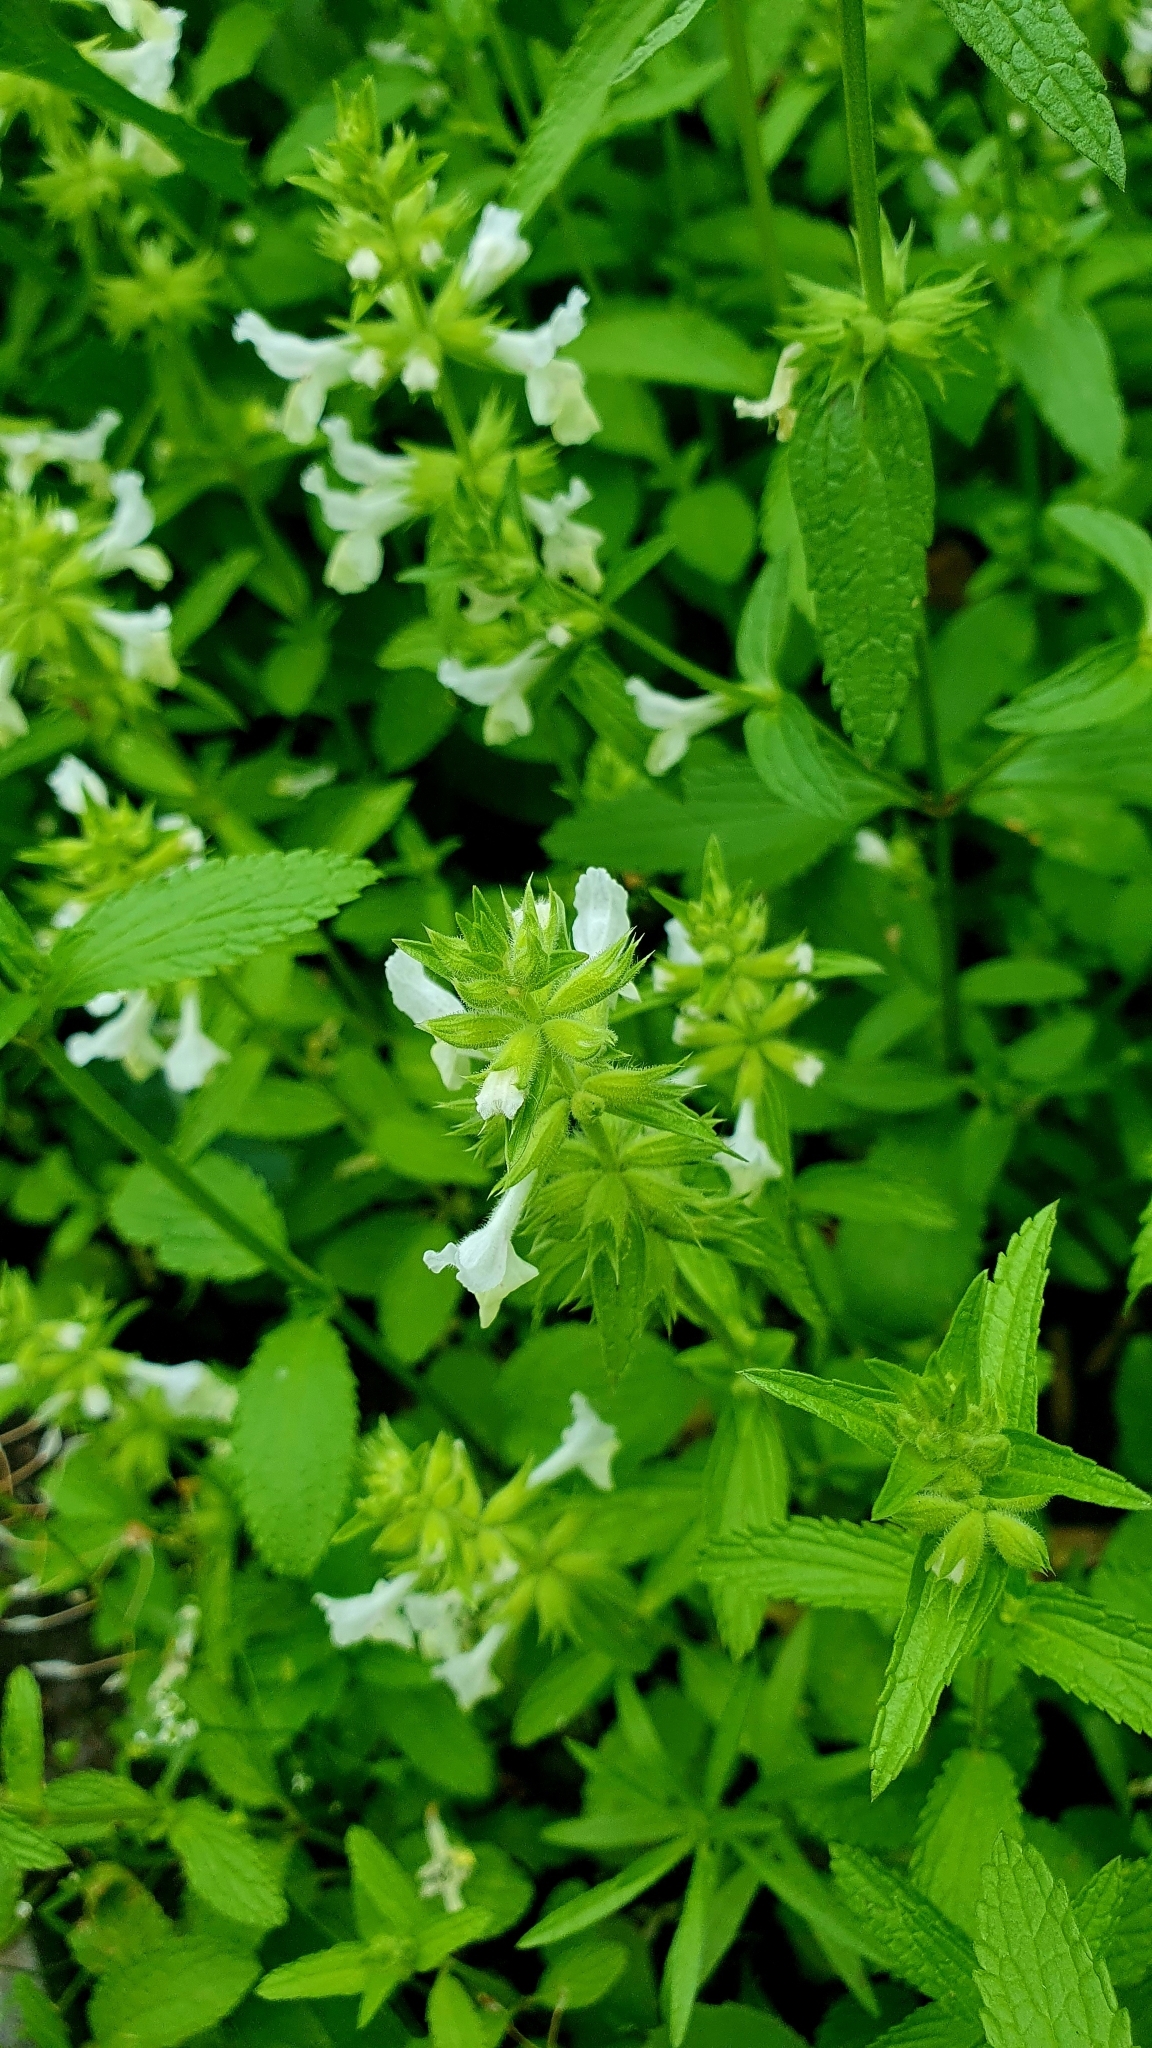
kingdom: Plantae
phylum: Tracheophyta
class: Magnoliopsida
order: Lamiales
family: Lamiaceae
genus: Stachys
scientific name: Stachys annua
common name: Annual yellow-woundwort
